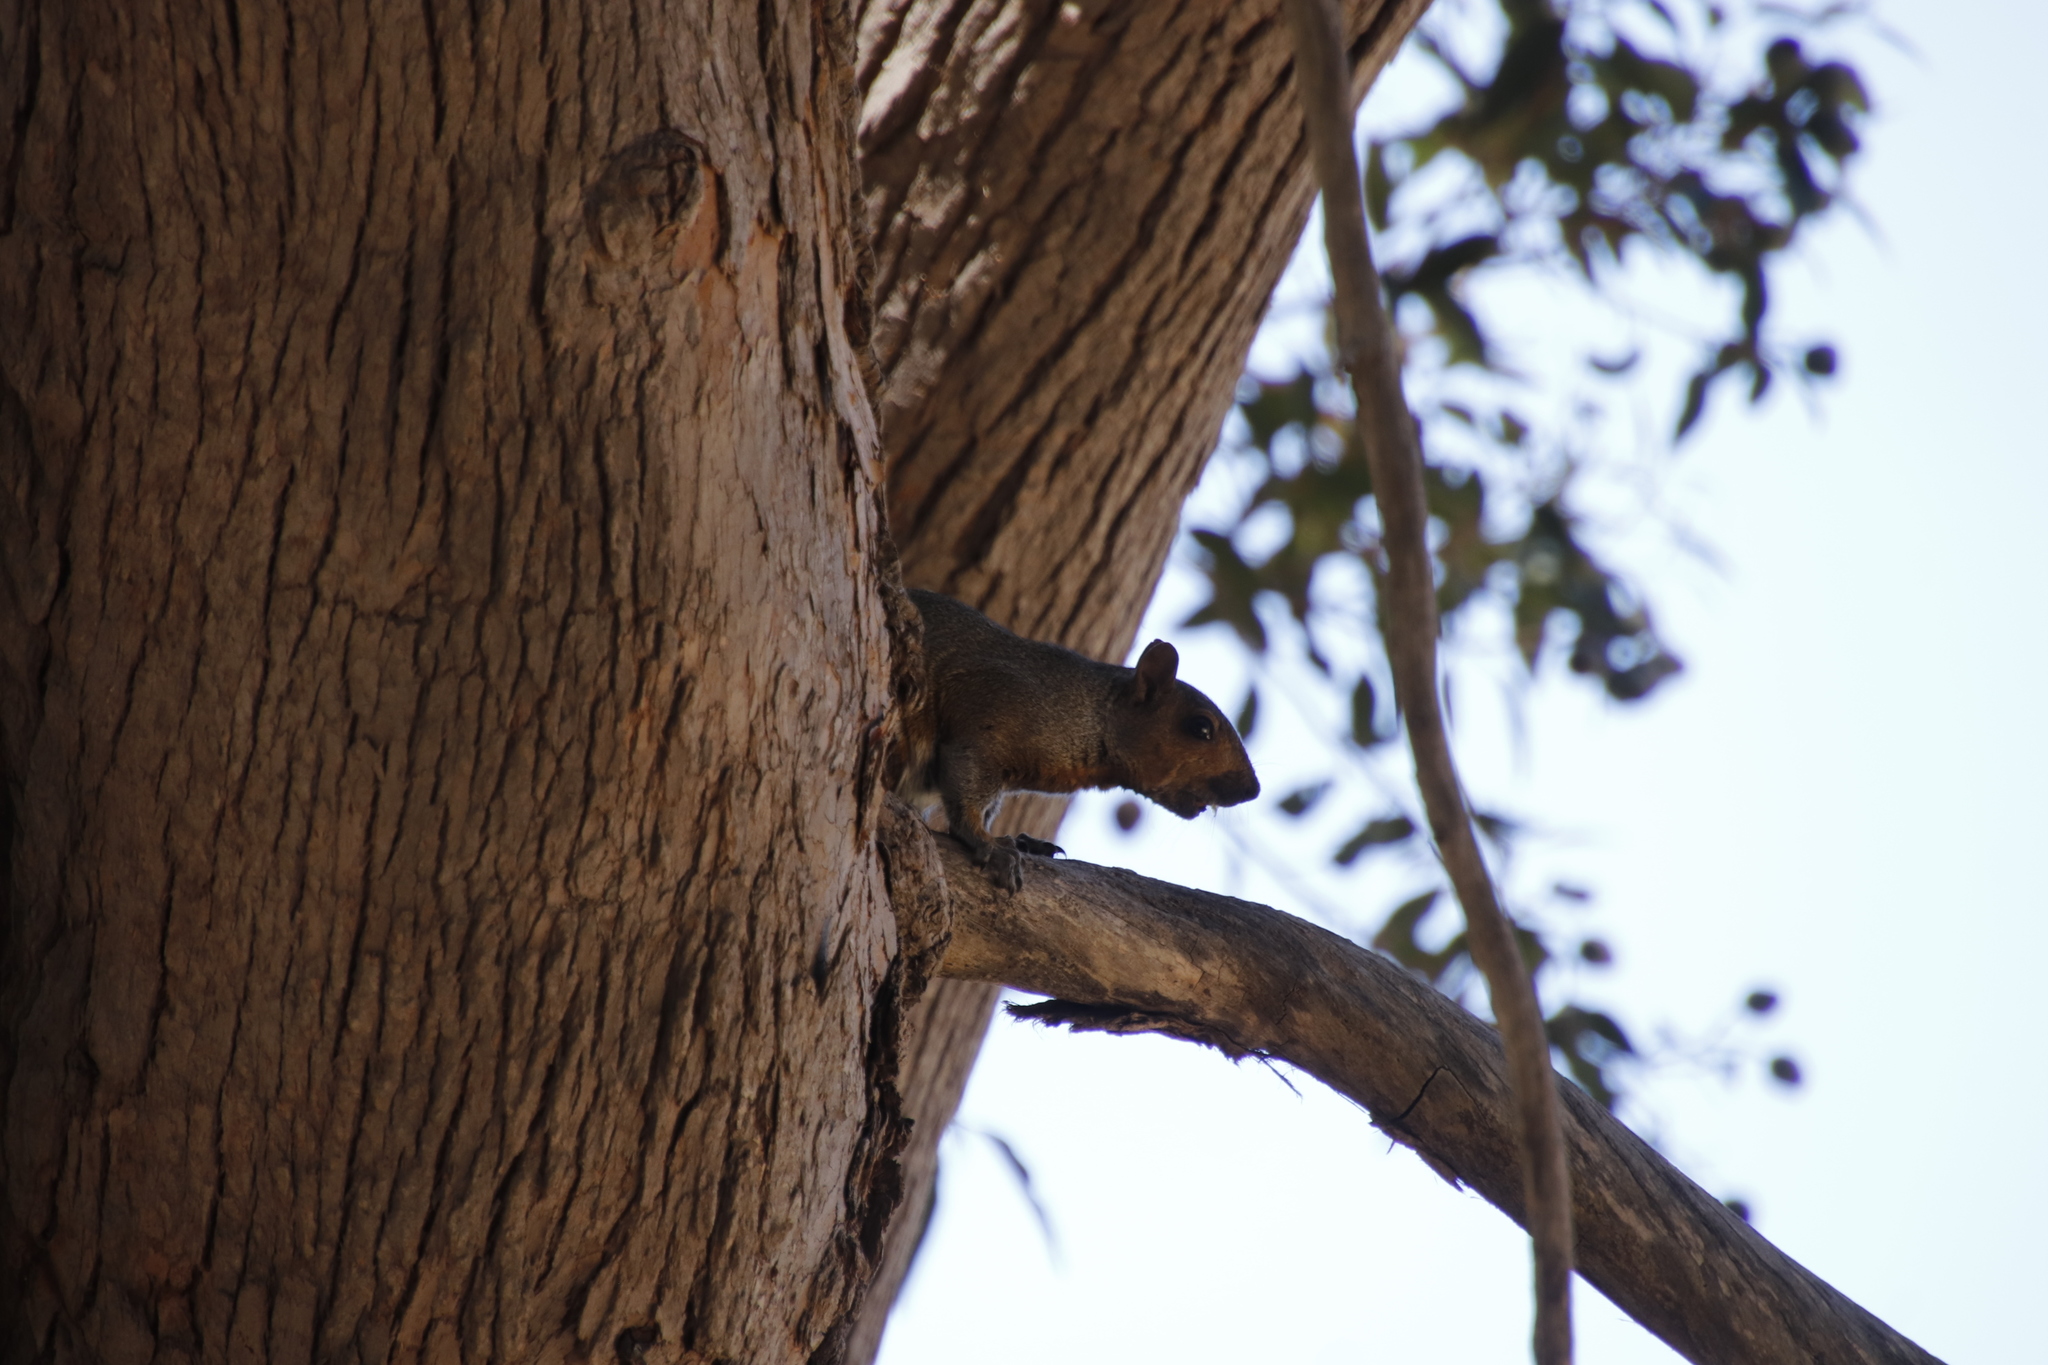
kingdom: Animalia
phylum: Chordata
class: Mammalia
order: Rodentia
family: Sciuridae
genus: Sciurus
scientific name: Sciurus carolinensis
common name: Eastern gray squirrel
